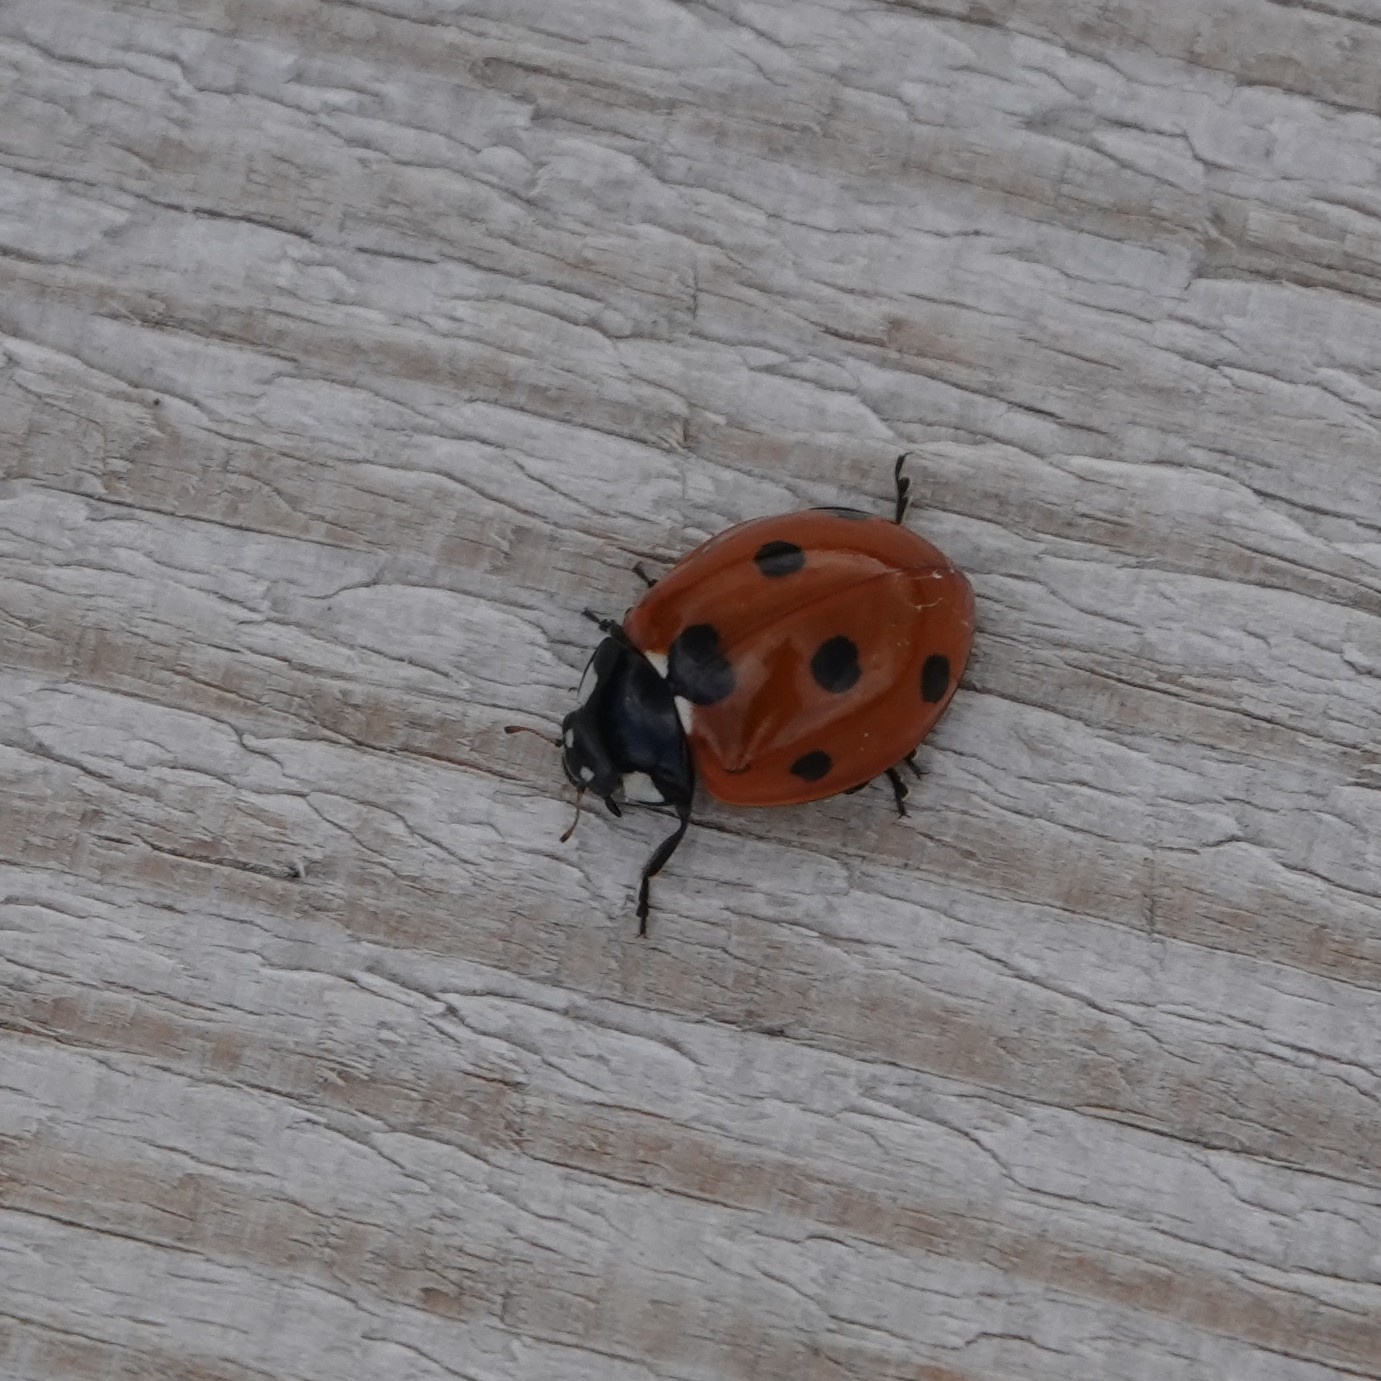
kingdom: Animalia
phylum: Arthropoda
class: Insecta
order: Coleoptera
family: Coccinellidae
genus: Coccinella
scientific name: Coccinella septempunctata
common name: Sevenspotted lady beetle
